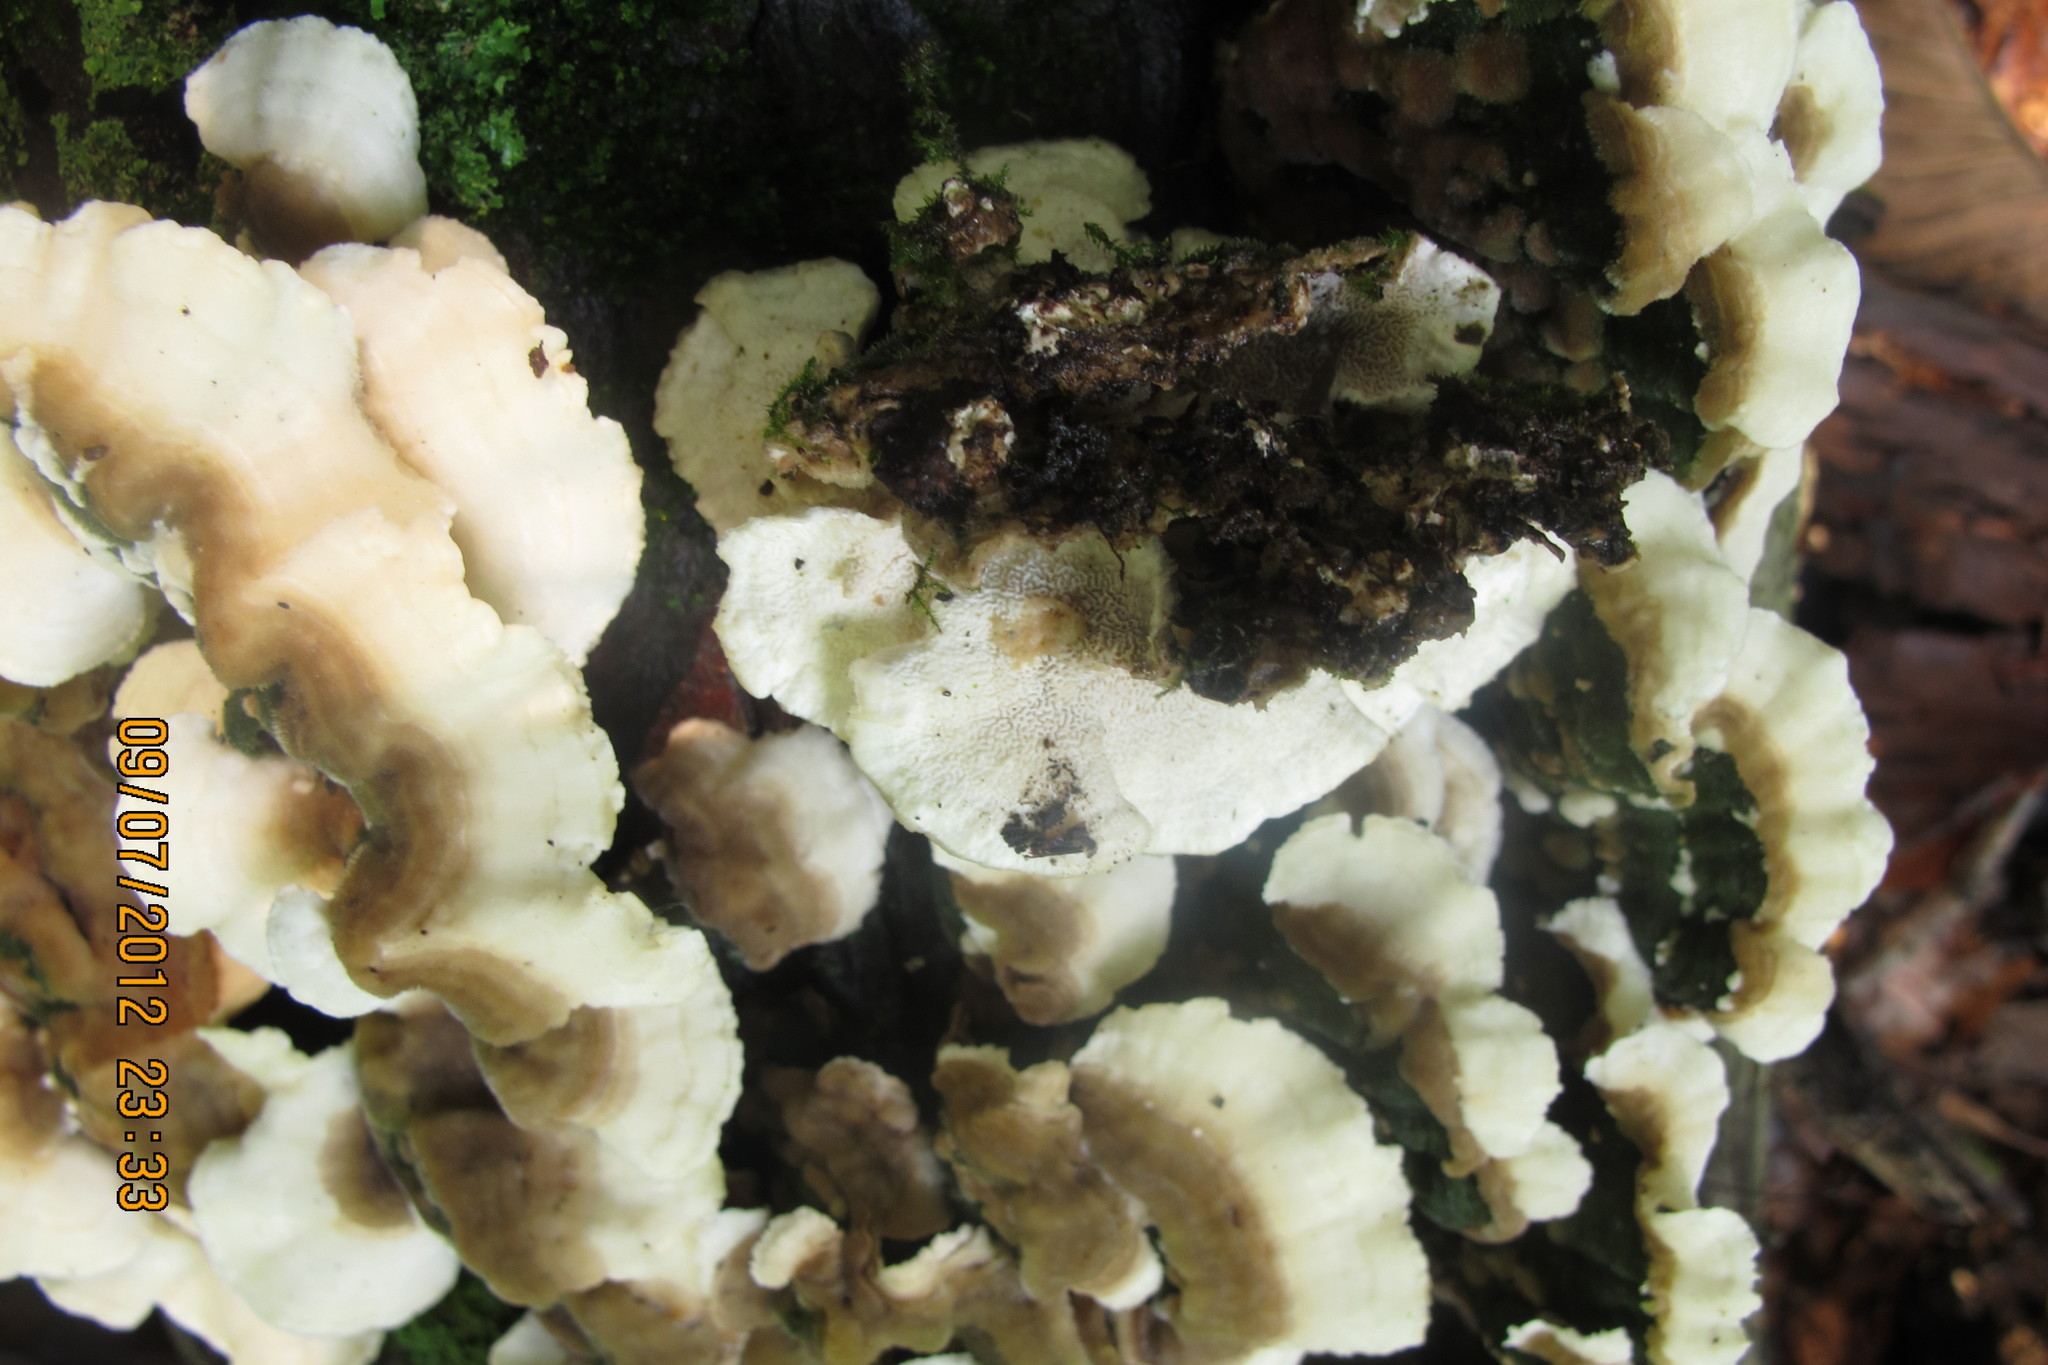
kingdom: Fungi
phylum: Basidiomycota
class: Agaricomycetes
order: Polyporales
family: Cerrenaceae
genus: Cerrena
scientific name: Cerrena unicolor
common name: Mossy maze polypore
